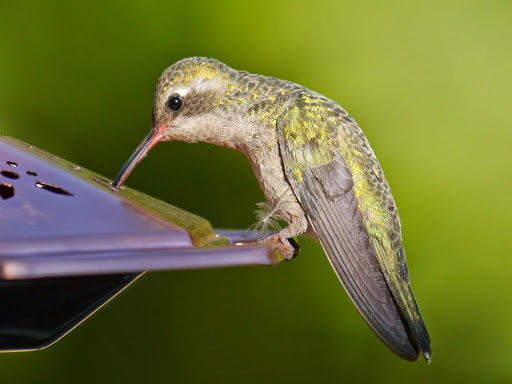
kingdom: Animalia
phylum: Chordata
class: Aves
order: Apodiformes
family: Trochilidae
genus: Cynanthus
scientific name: Cynanthus latirostris
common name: Broad-billed hummingbird
